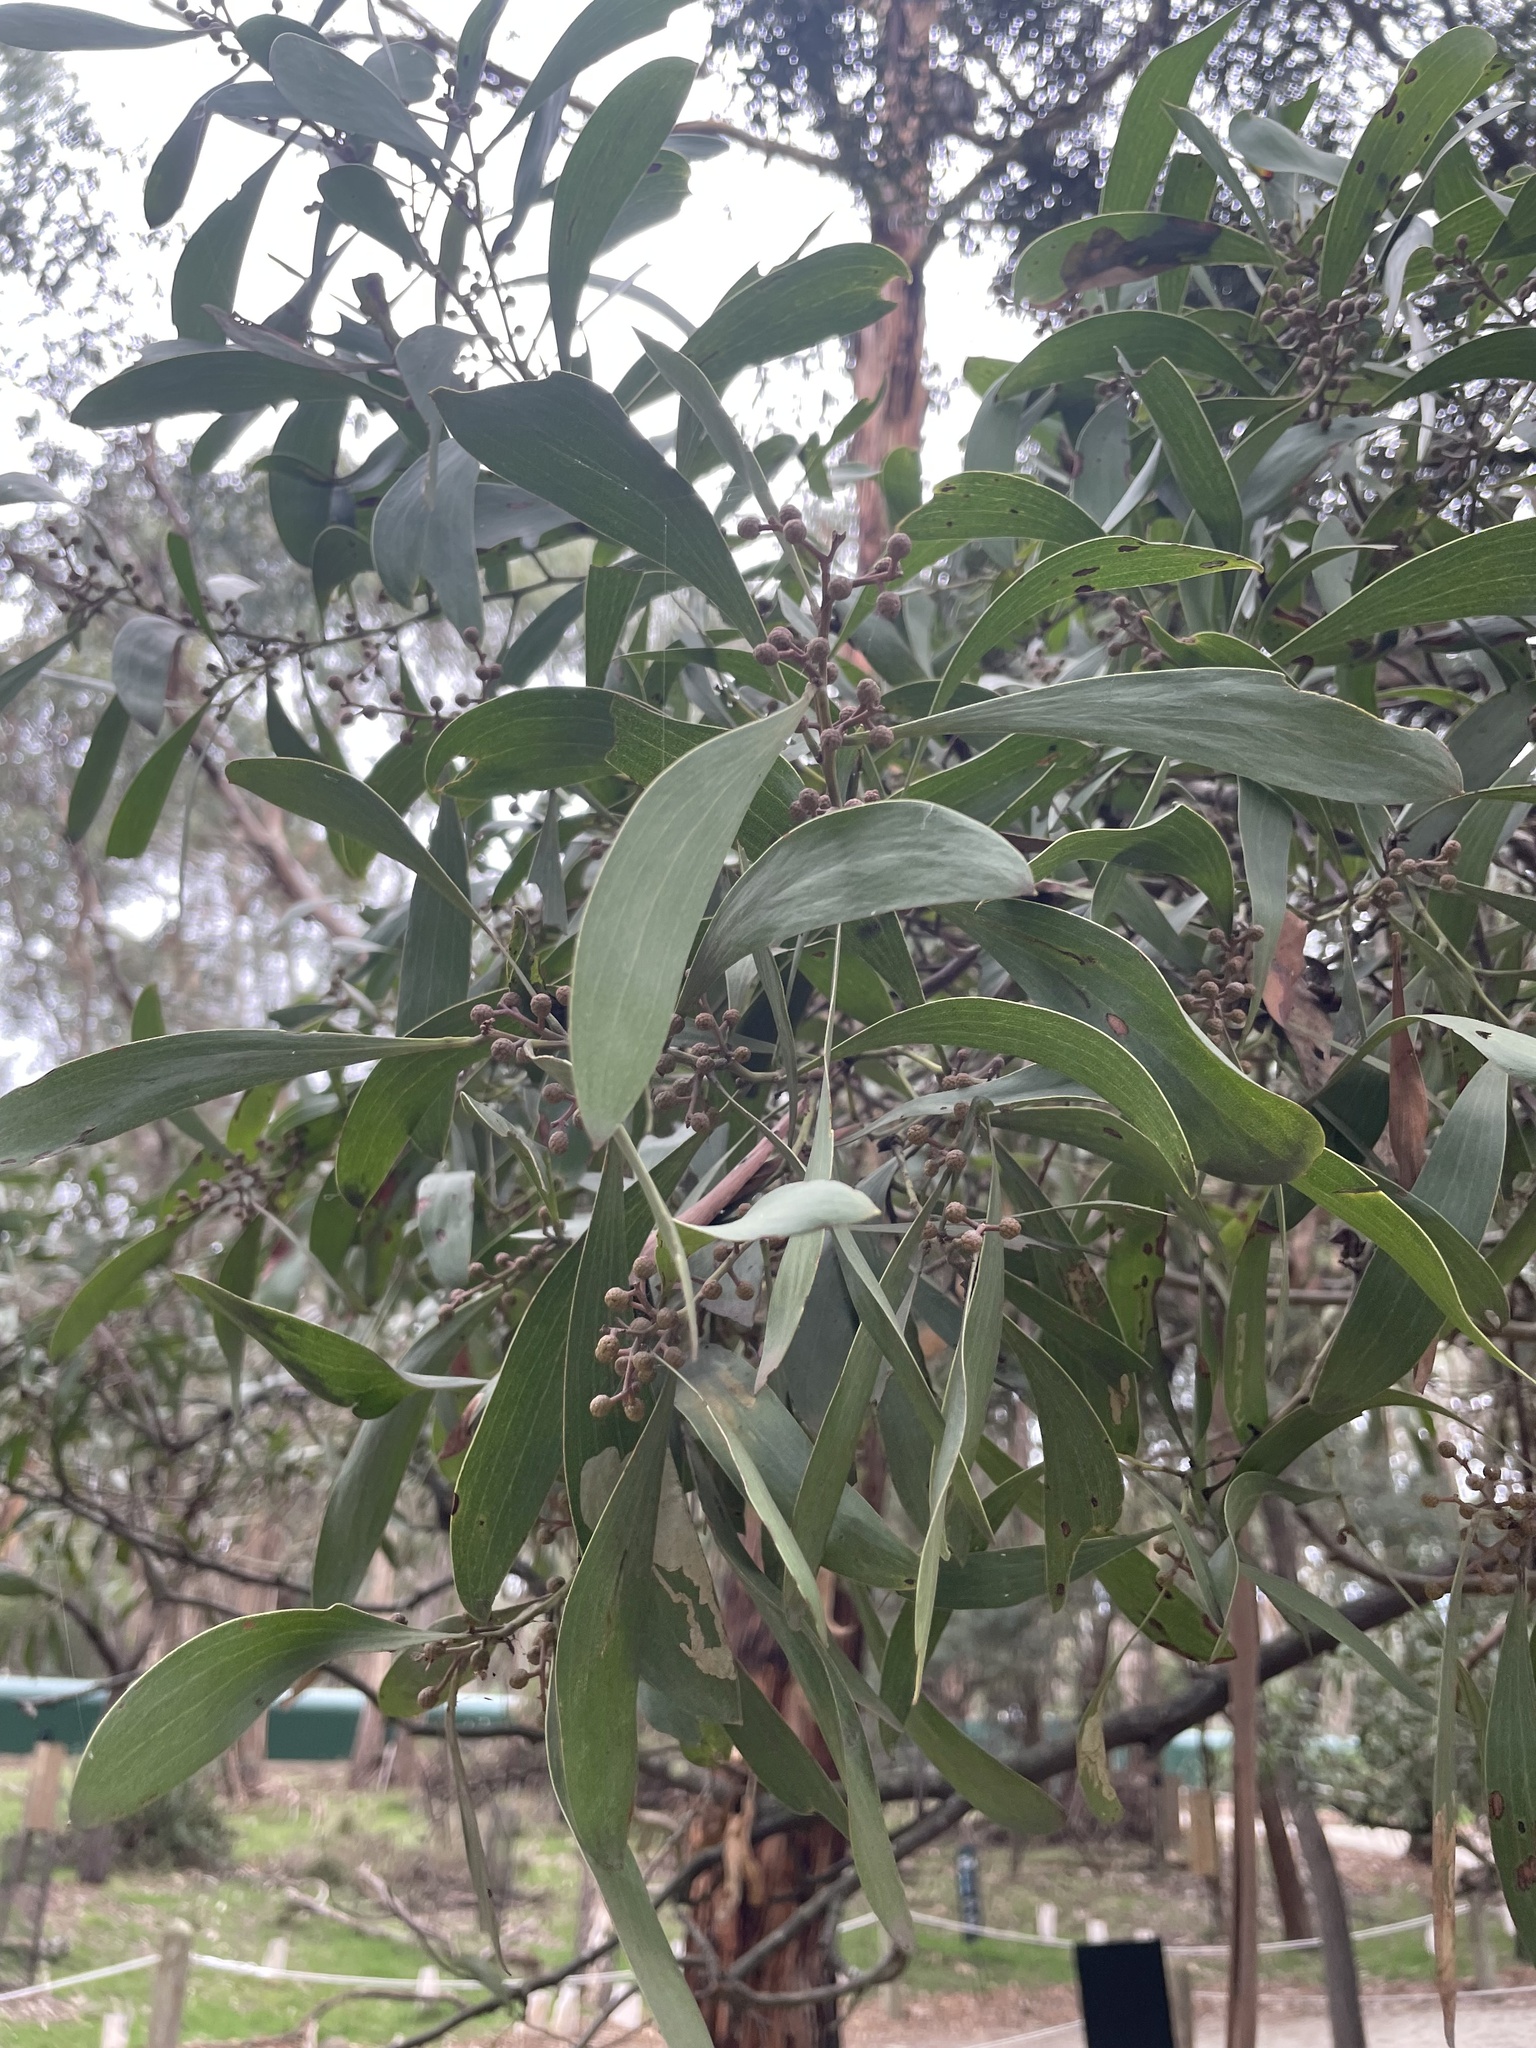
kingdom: Plantae
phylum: Tracheophyta
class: Magnoliopsida
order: Fabales
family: Fabaceae
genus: Acacia
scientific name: Acacia melanoxylon
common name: Blackwood
